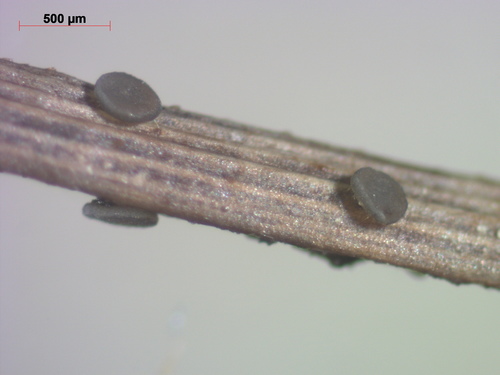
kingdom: Fungi
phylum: Ascomycota
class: Leotiomycetes
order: Helotiales
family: Mollisiaceae
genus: Mollisia
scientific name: Mollisia
